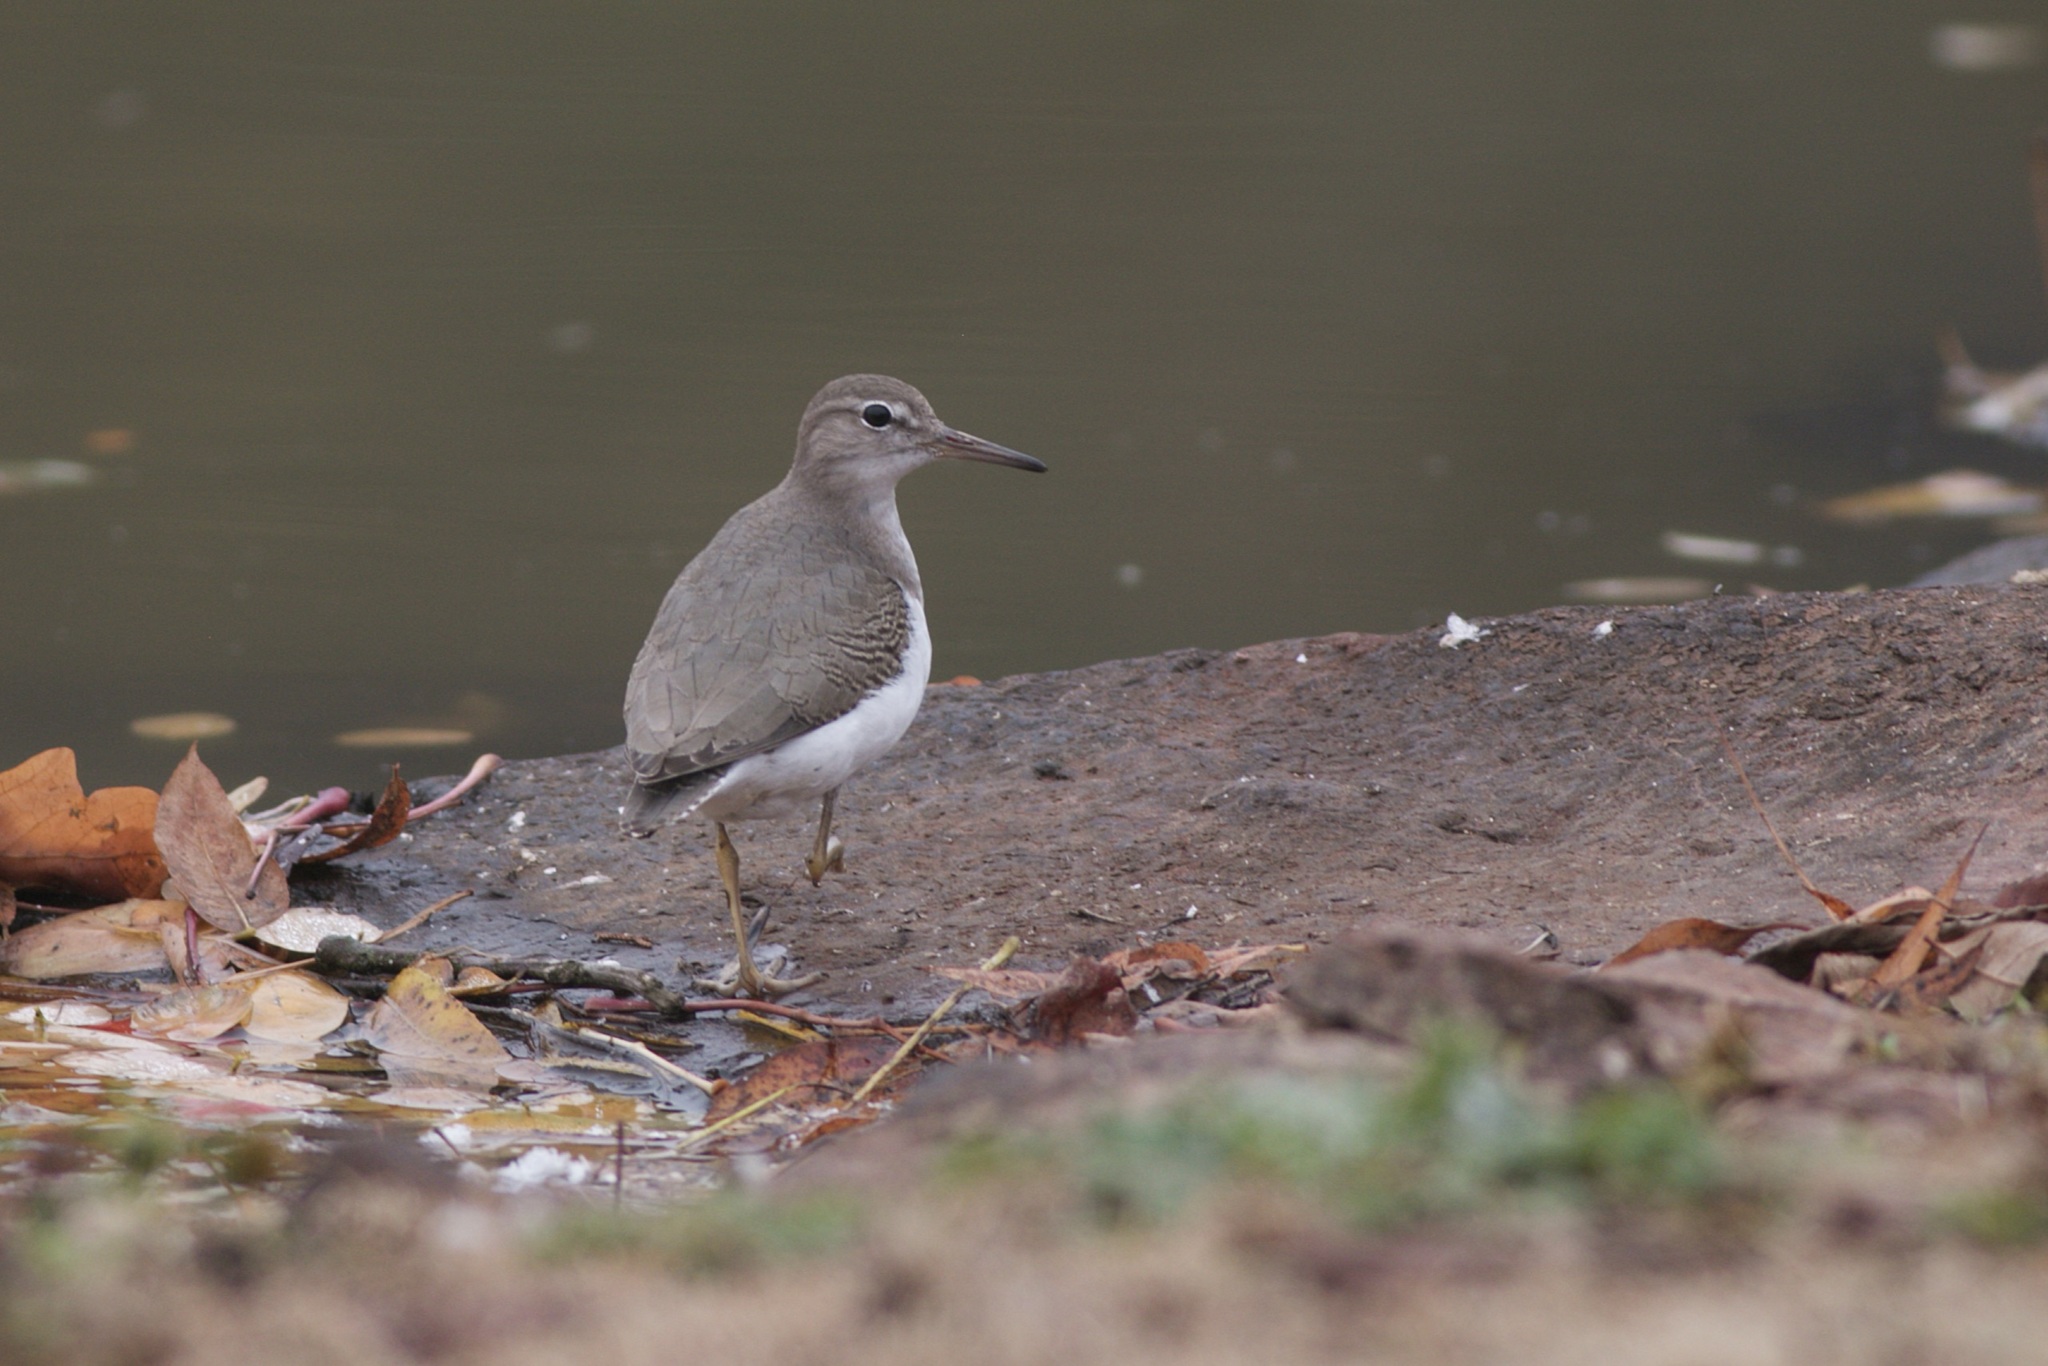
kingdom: Animalia
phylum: Chordata
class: Aves
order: Charadriiformes
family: Scolopacidae
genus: Actitis
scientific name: Actitis macularius
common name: Spotted sandpiper
